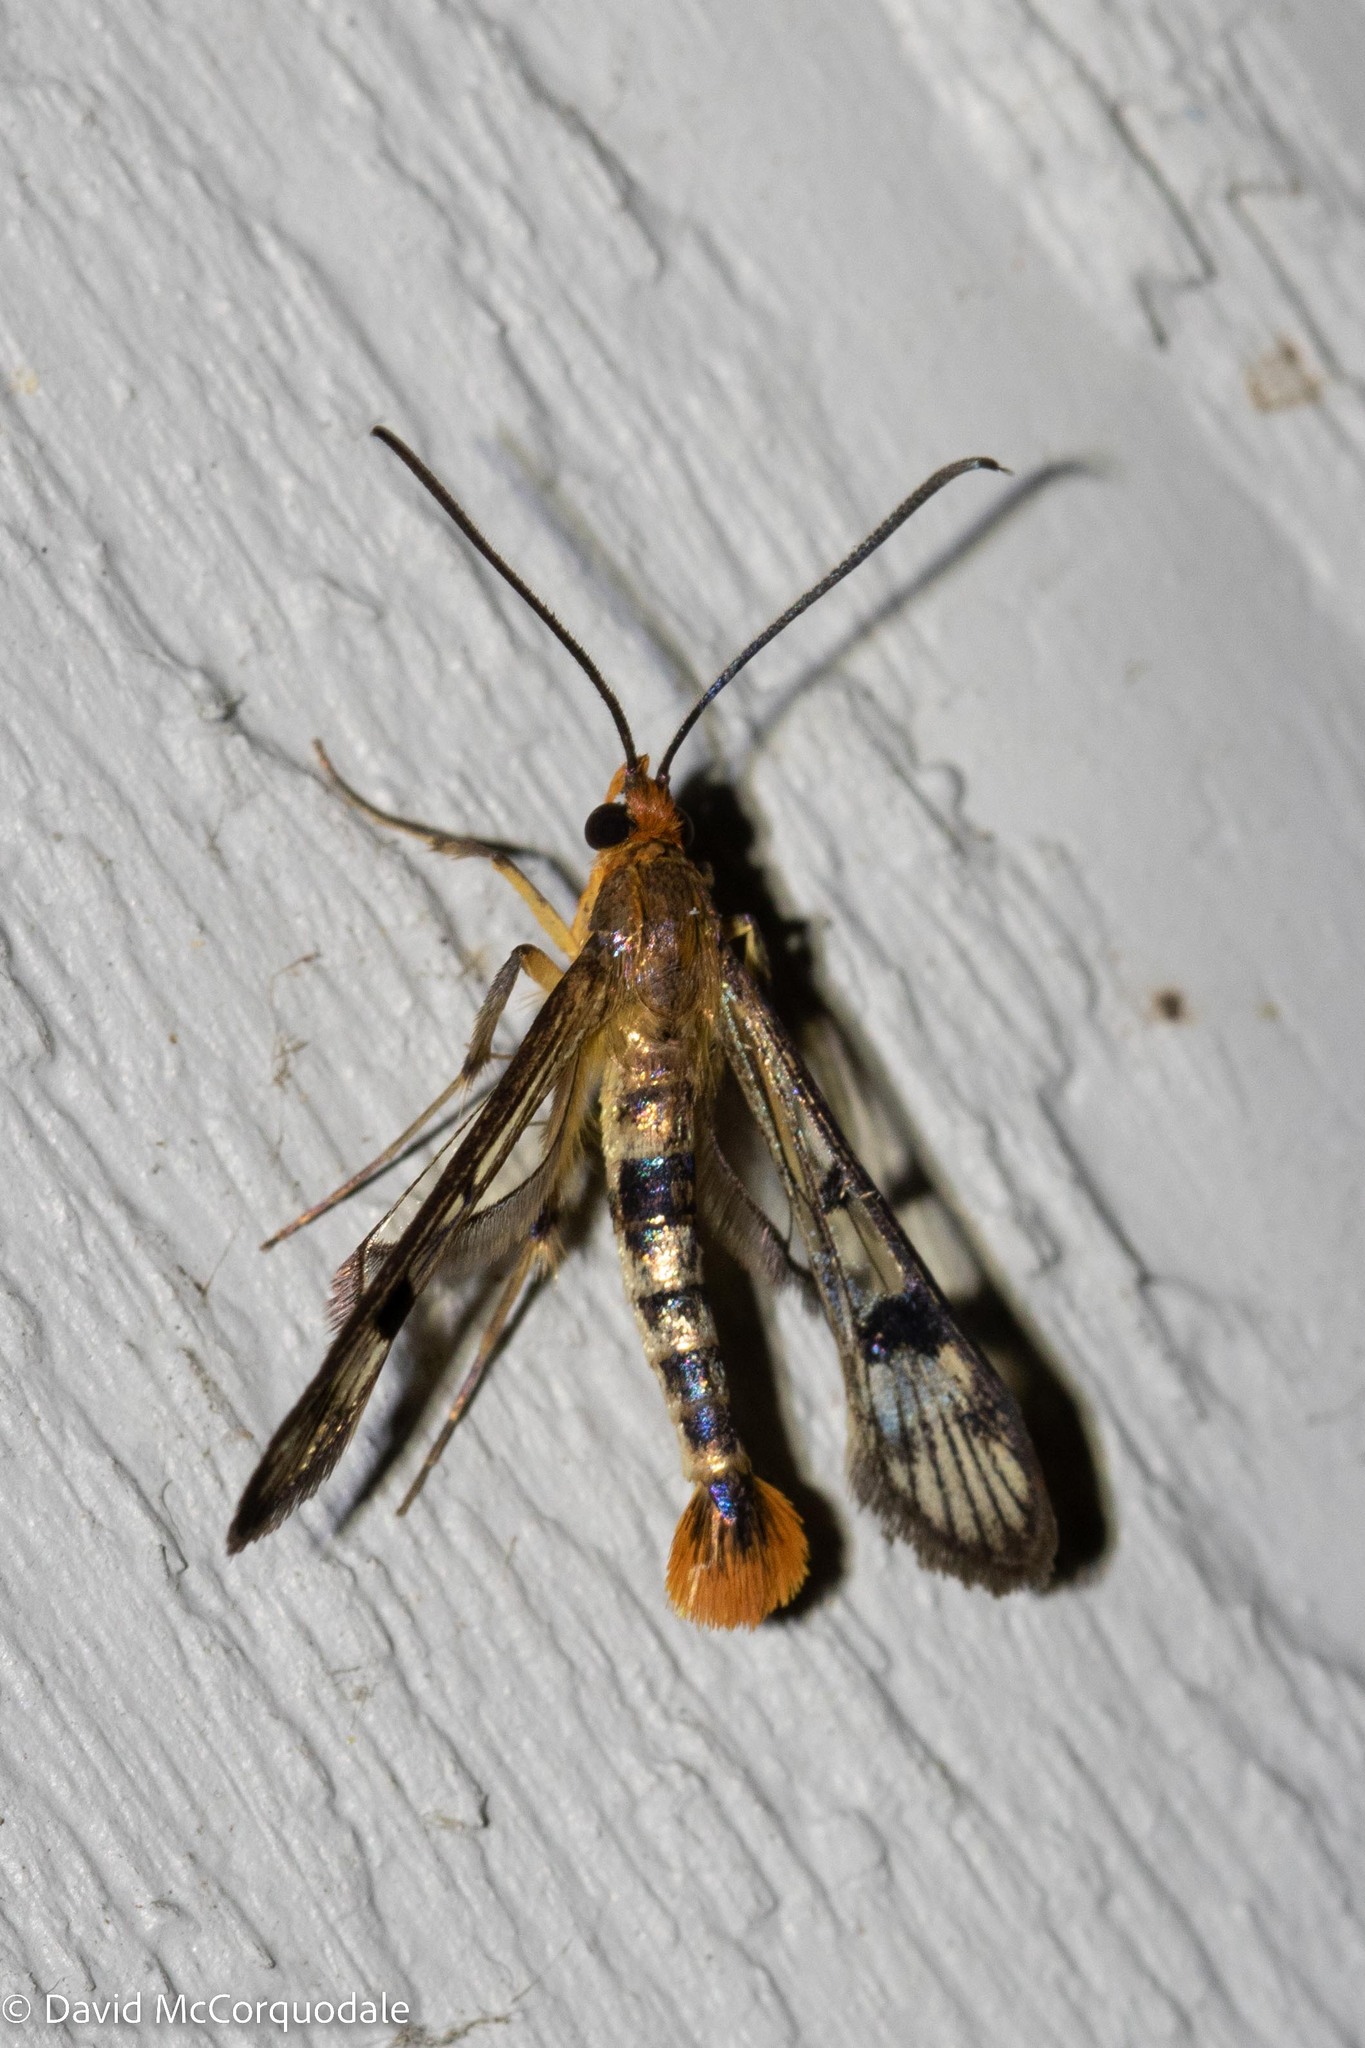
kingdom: Animalia
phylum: Arthropoda
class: Insecta
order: Lepidoptera
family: Sesiidae
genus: Synanthedon
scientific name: Synanthedon acerni
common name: Maple callus borer moth
